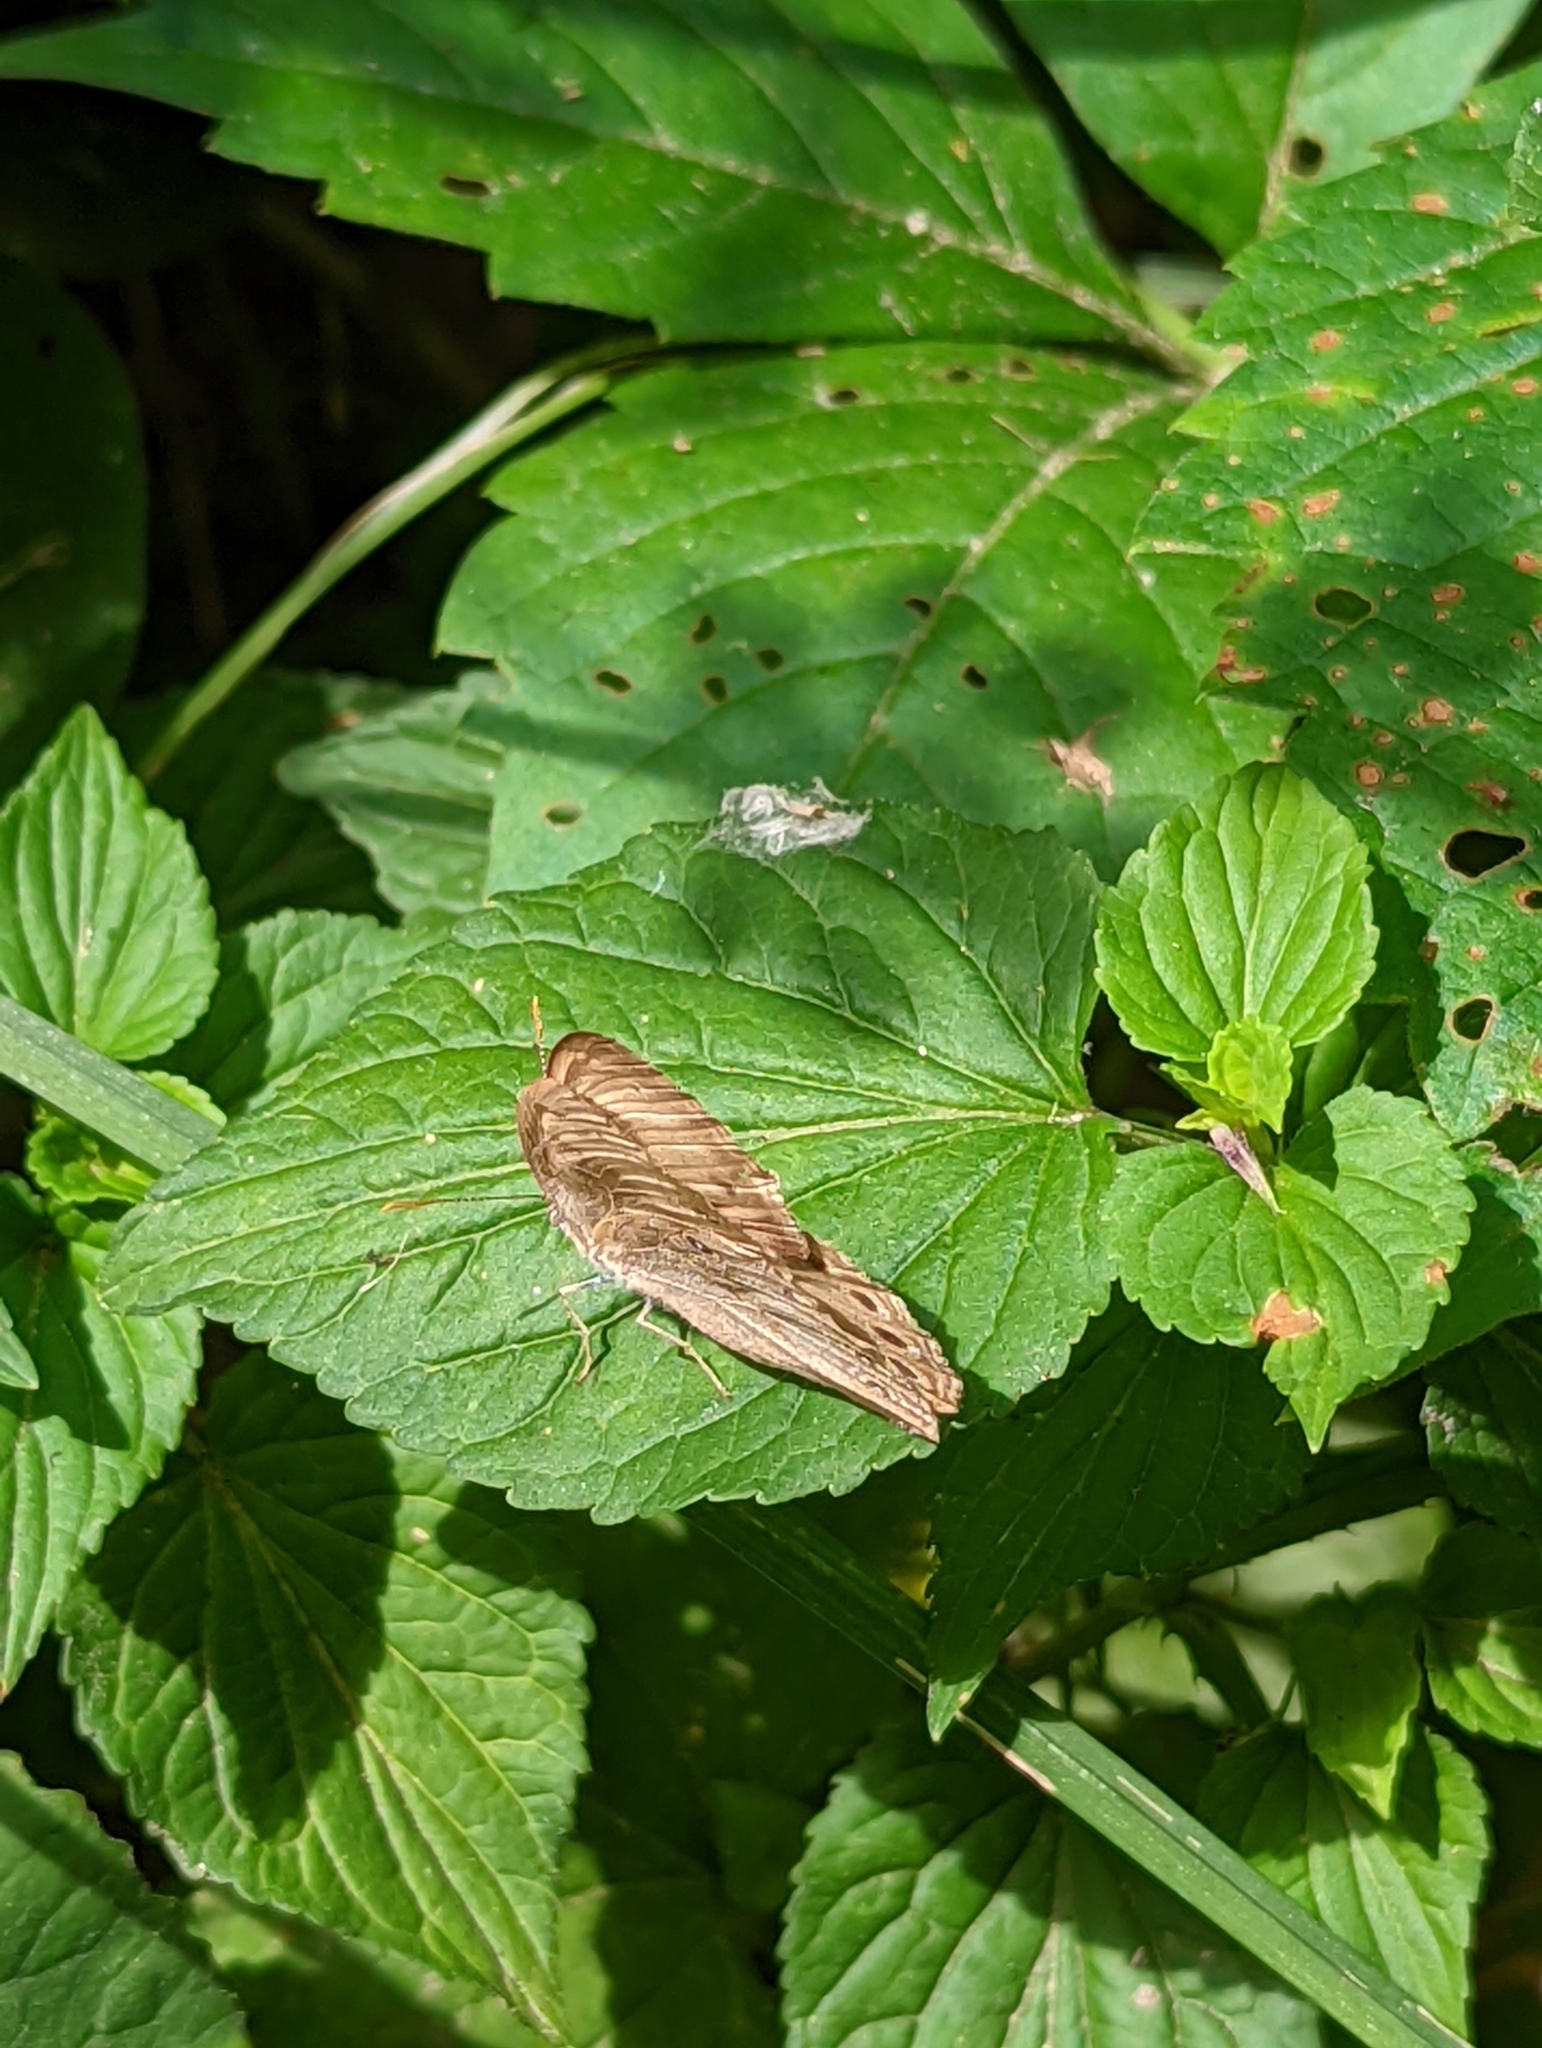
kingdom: Animalia
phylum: Arthropoda
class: Insecta
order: Lepidoptera
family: Nymphalidae
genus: Lethe
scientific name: Lethe eurydice
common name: Eyed brown
